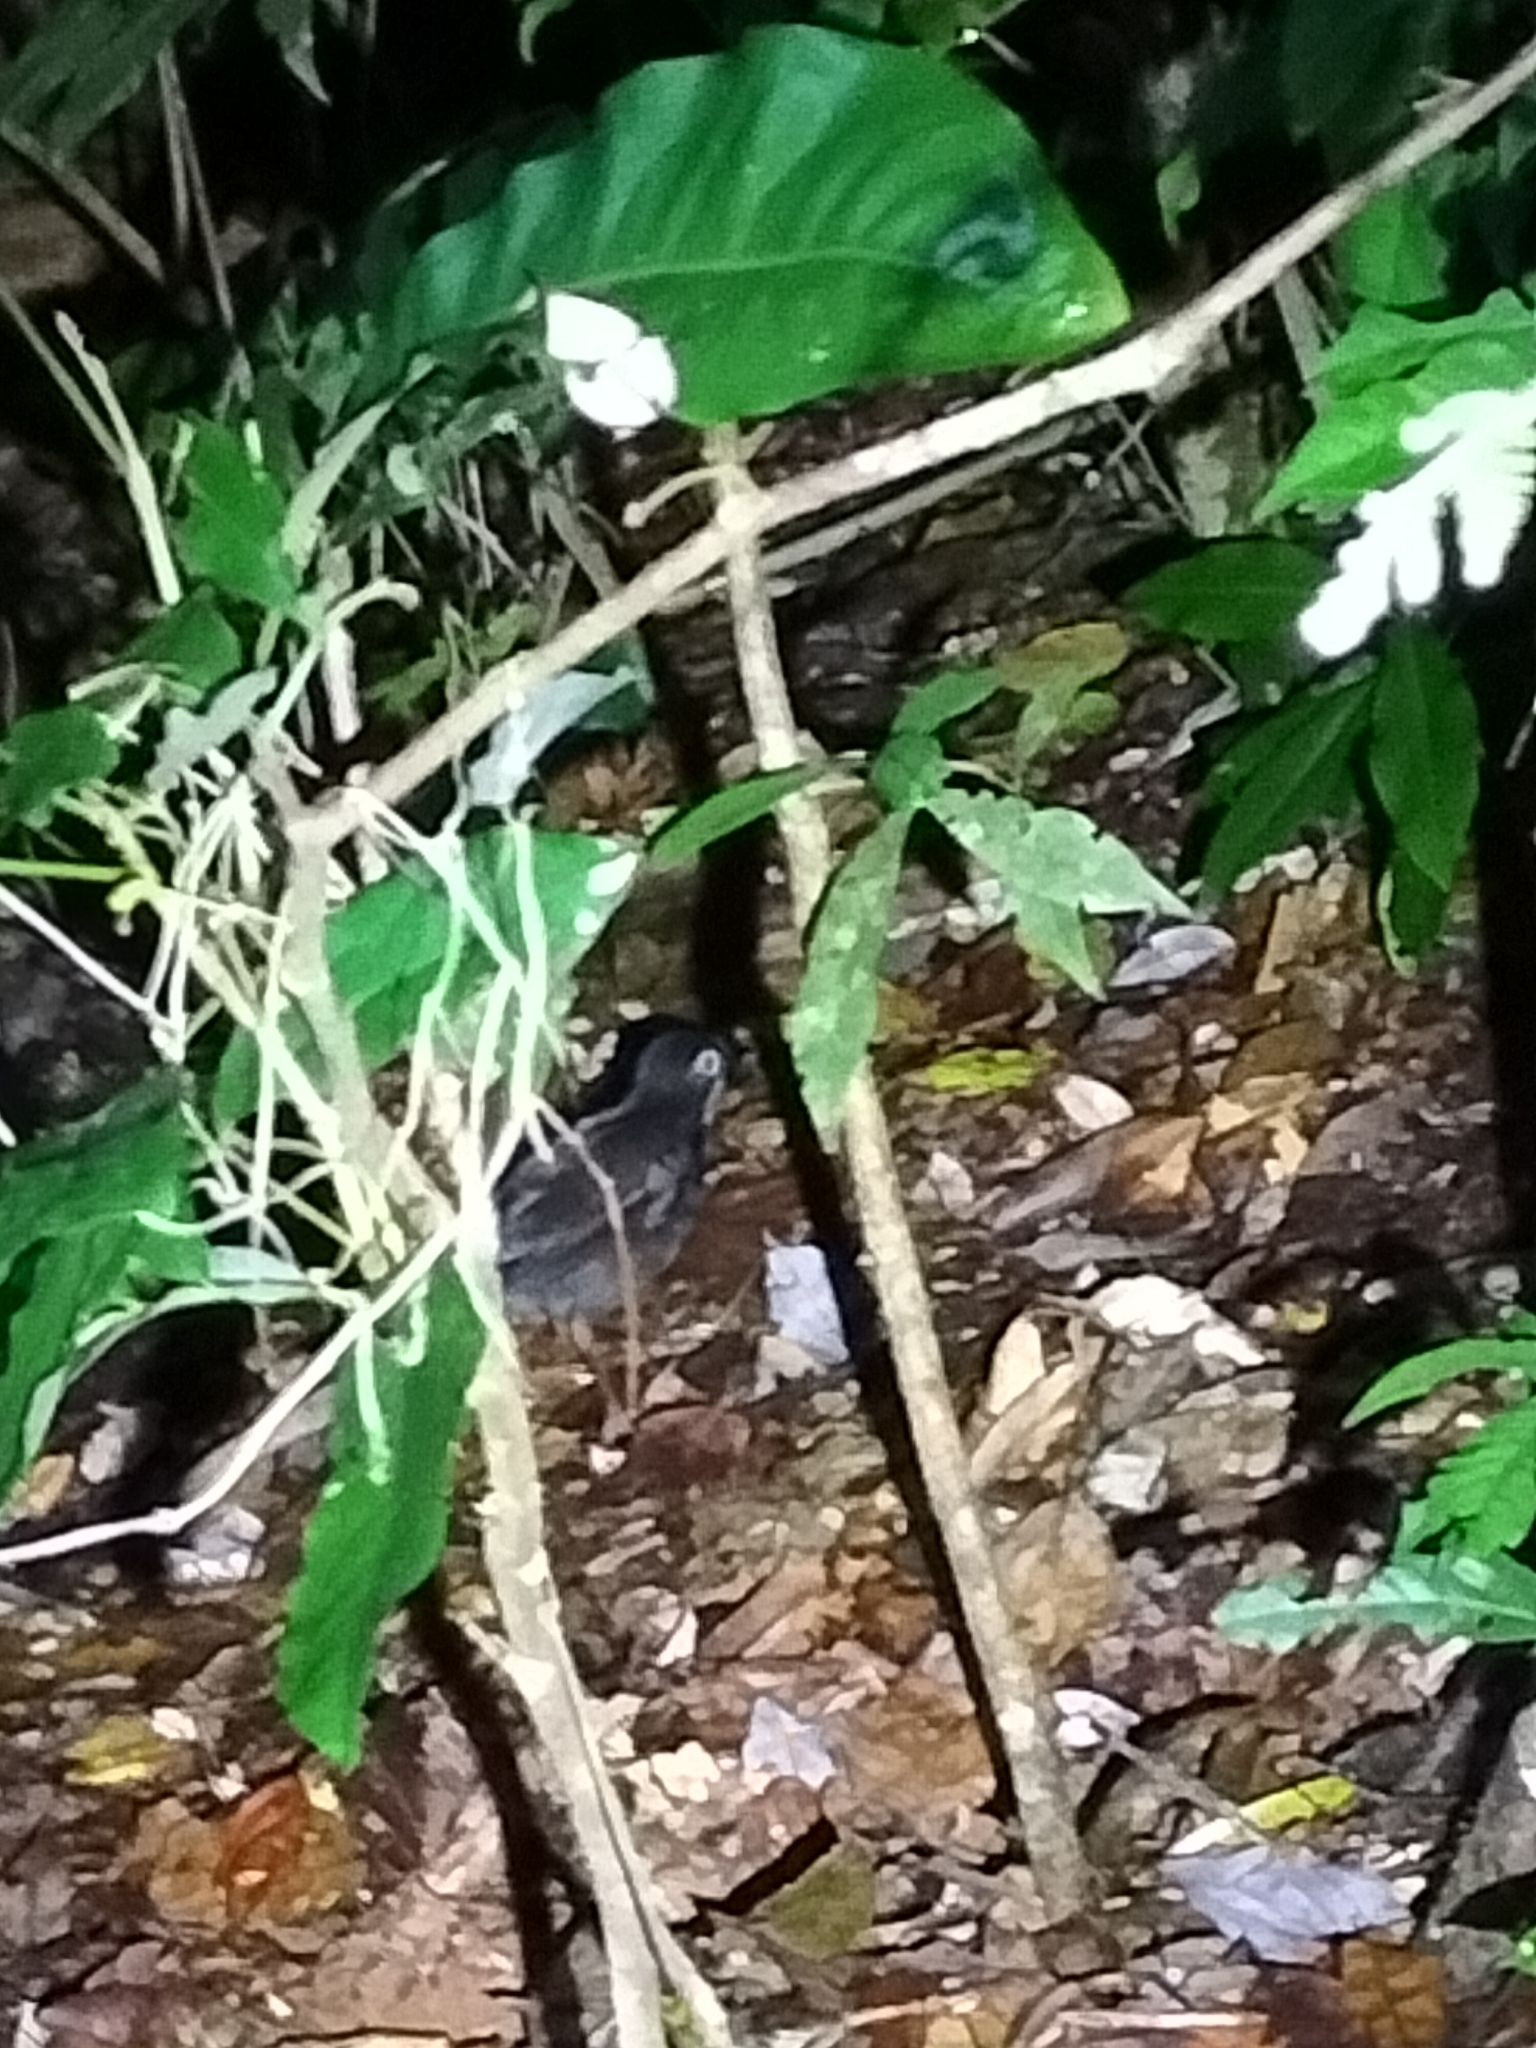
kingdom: Animalia
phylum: Chordata
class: Aves
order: Passeriformes
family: Orthonychidae
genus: Orthonyx
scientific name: Orthonyx spaldingii
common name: Chowchilla
